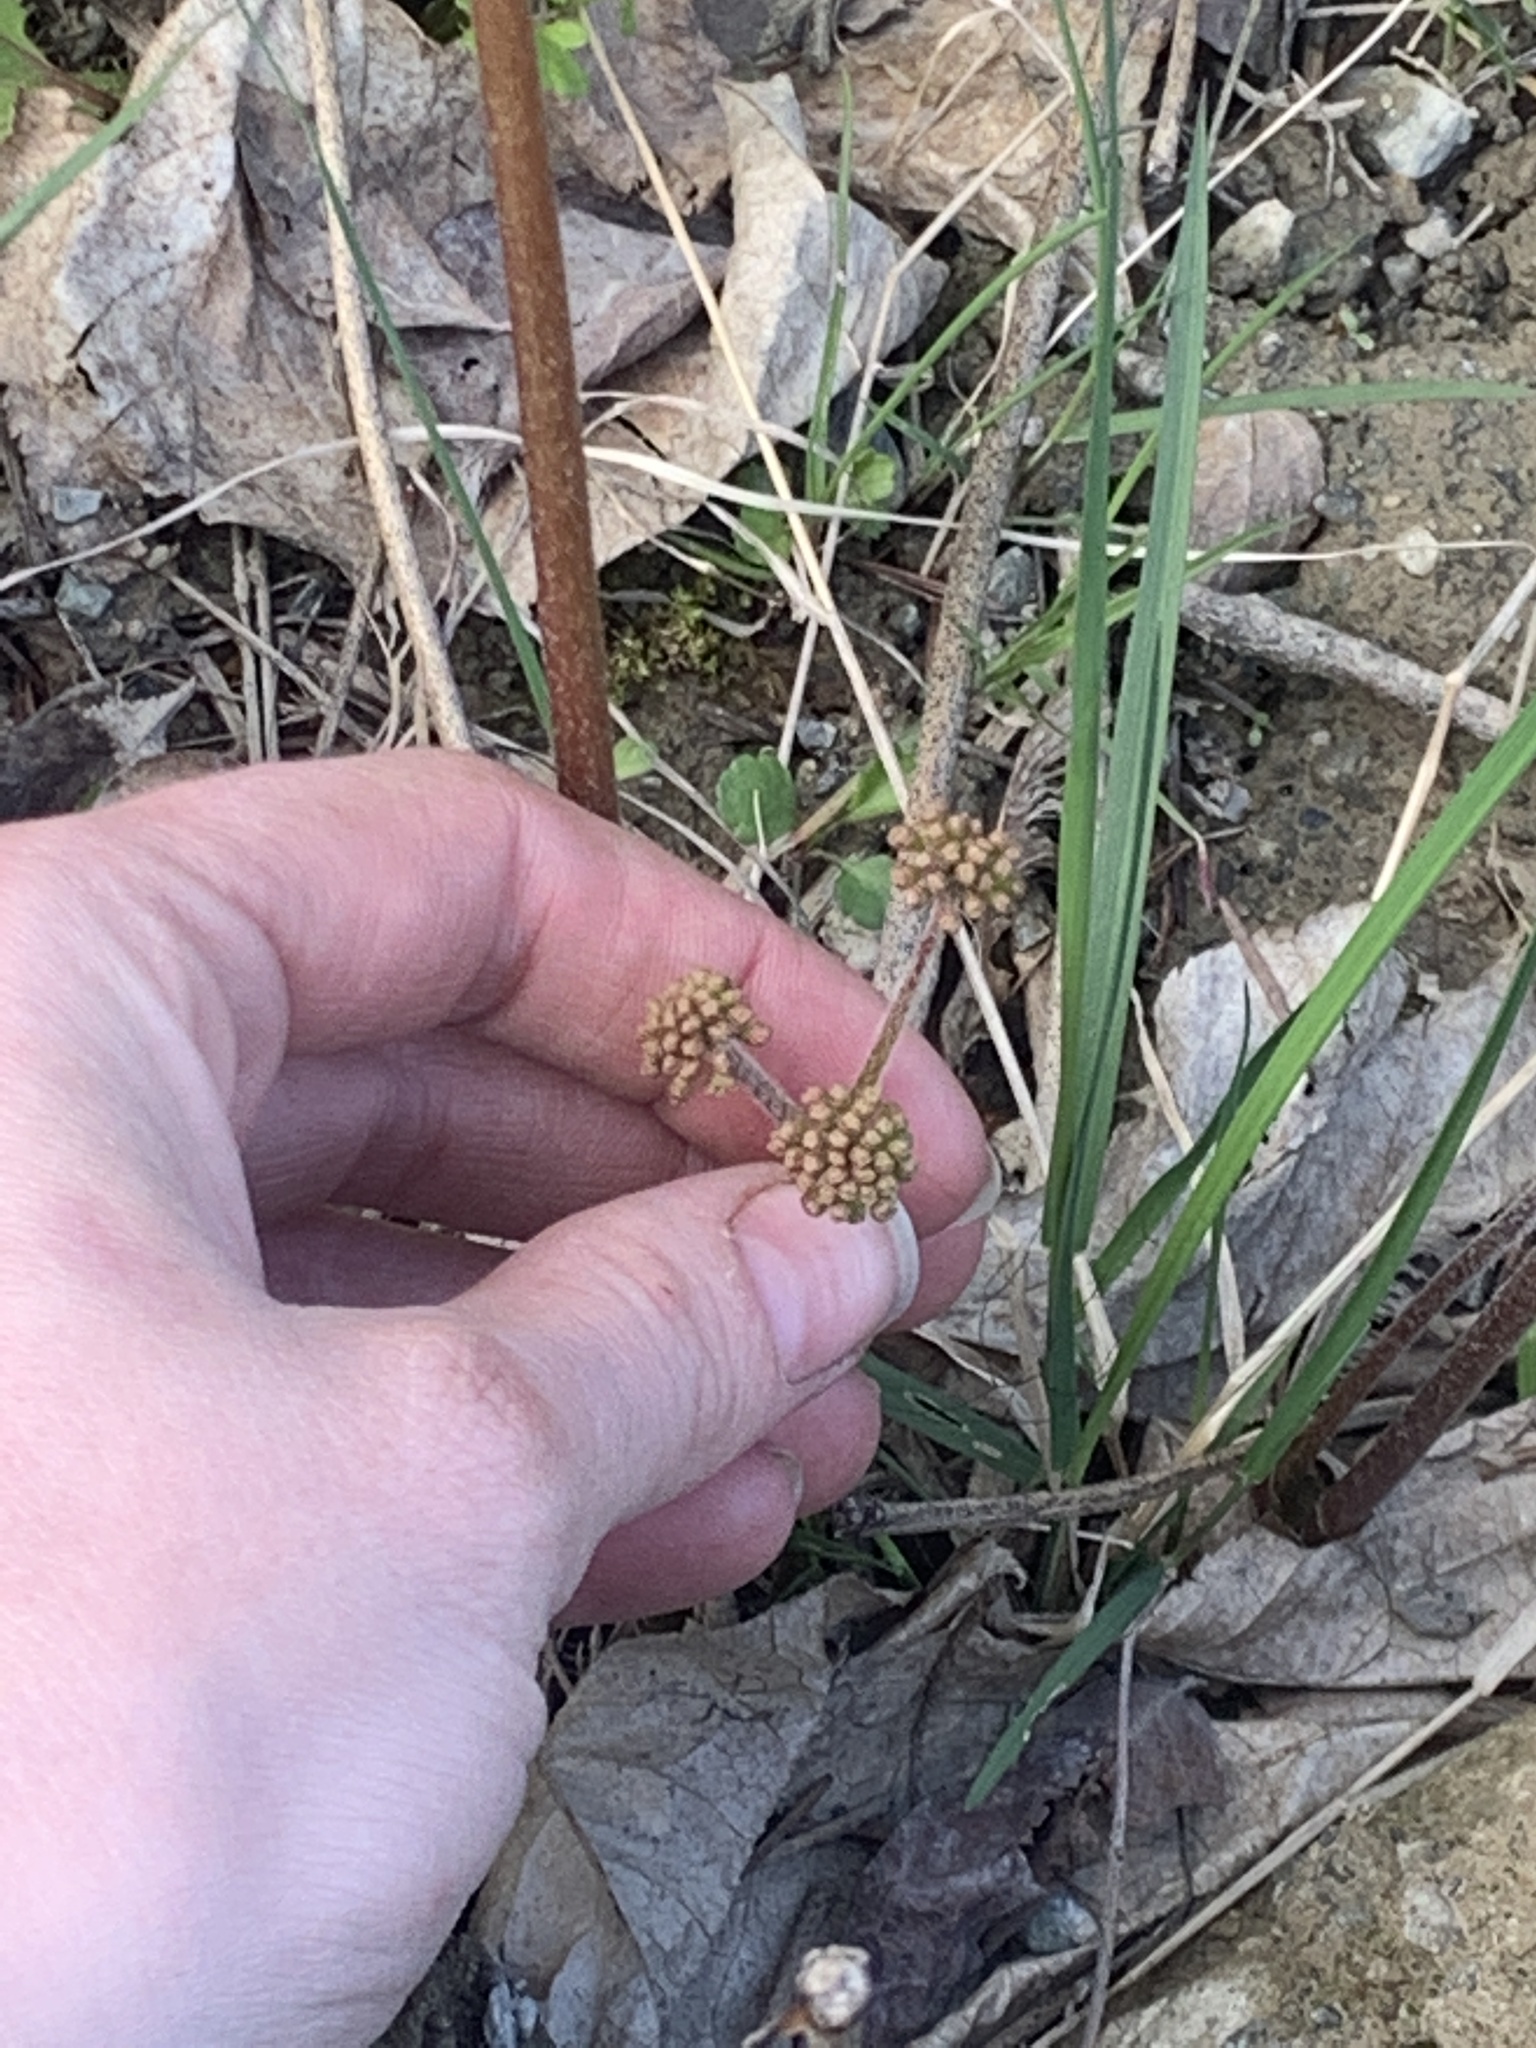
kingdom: Plantae
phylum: Tracheophyta
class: Magnoliopsida
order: Apiales
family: Araliaceae
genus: Aralia
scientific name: Aralia nudicaulis
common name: Wild sarsaparilla
